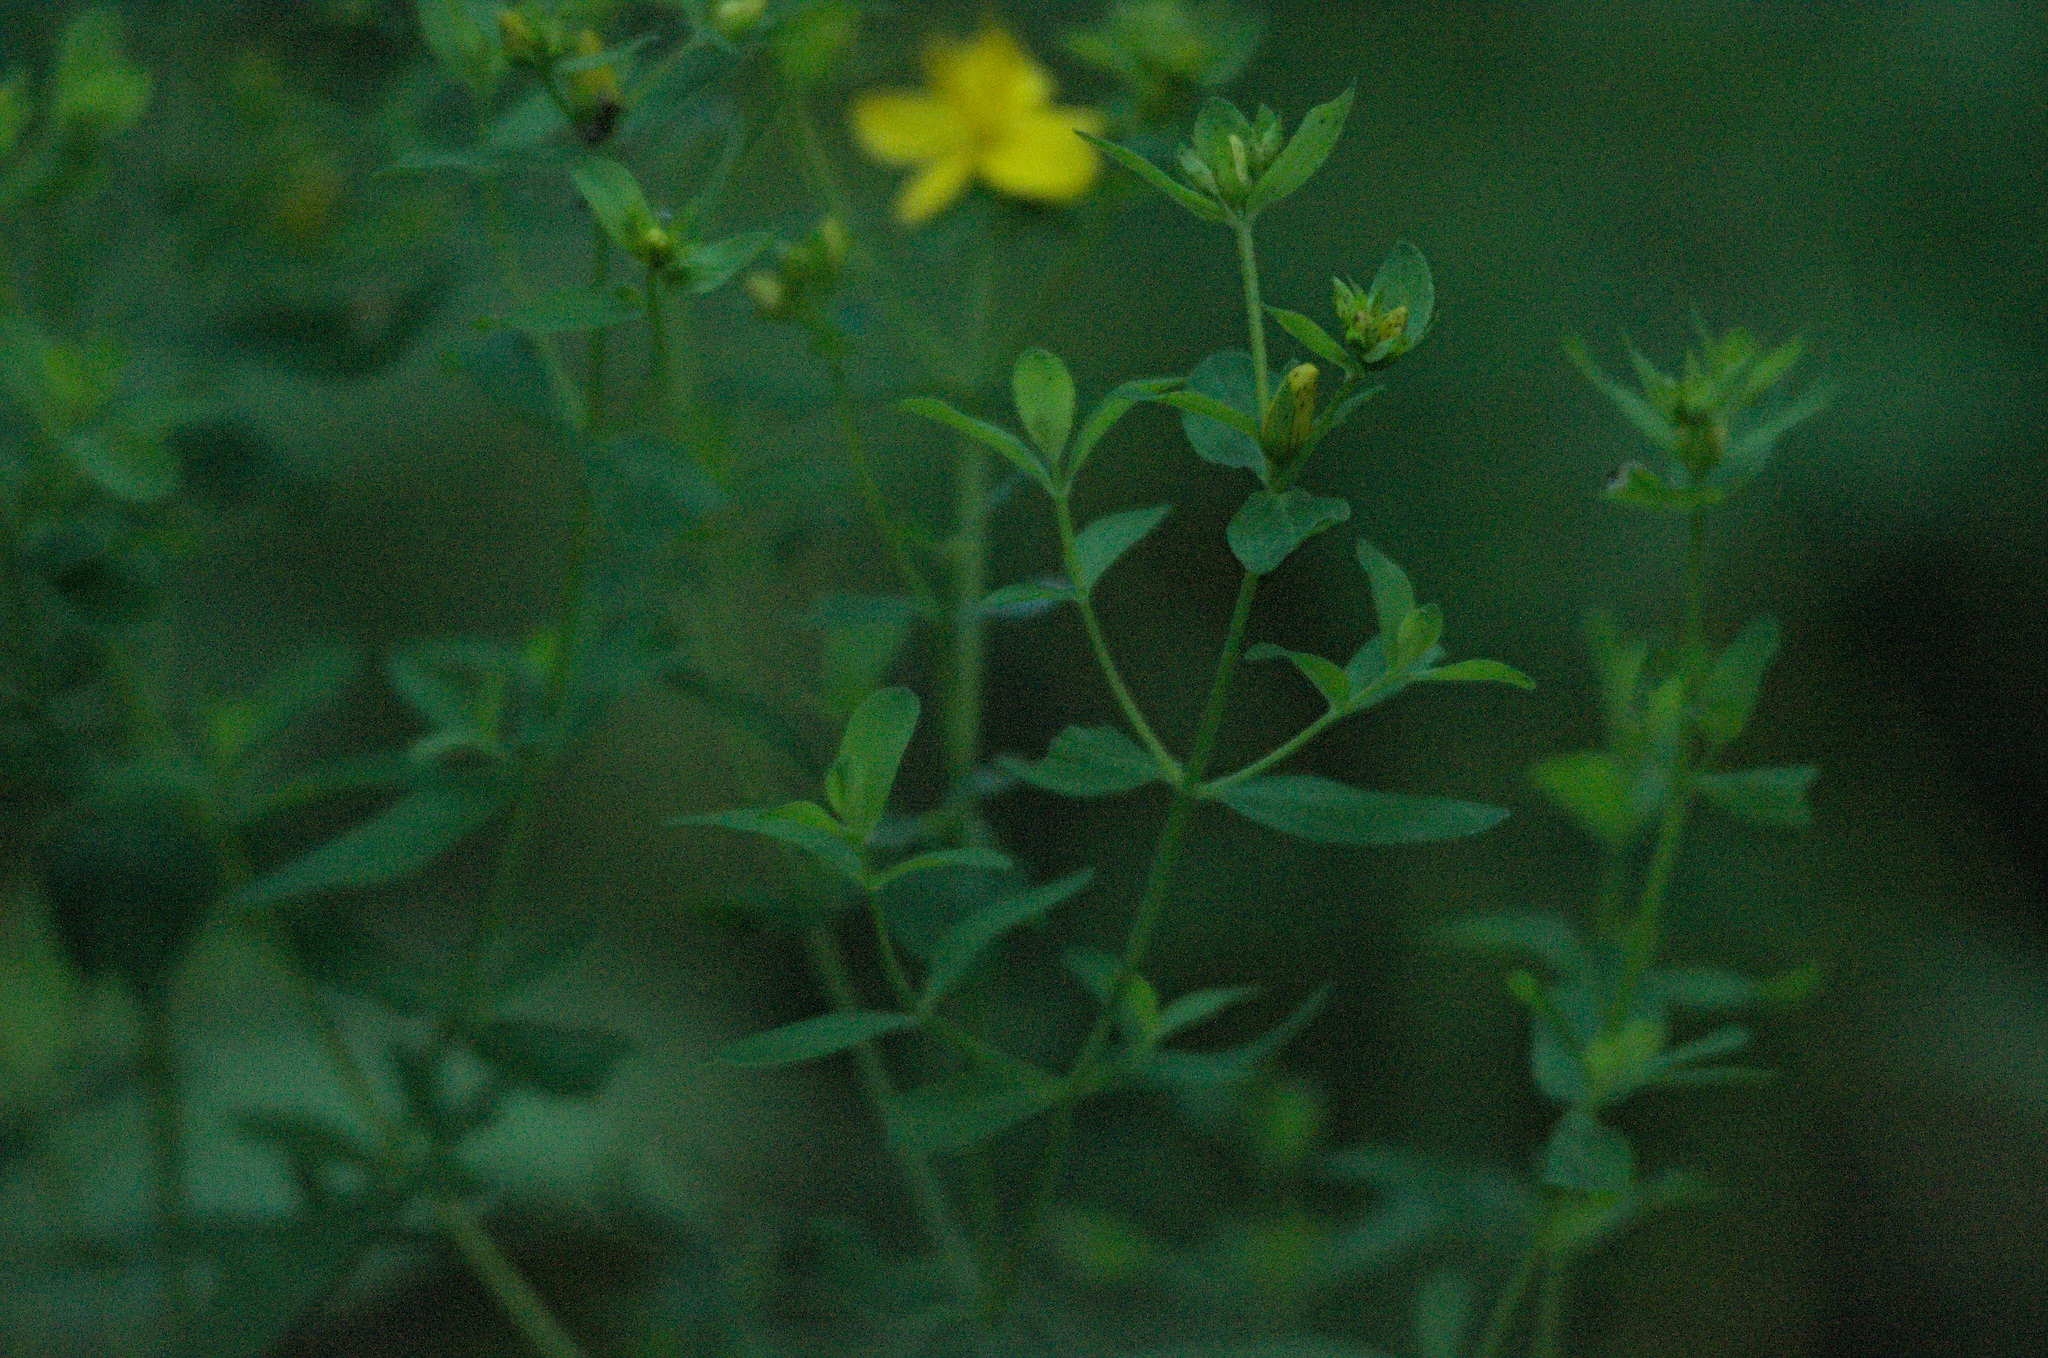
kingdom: Plantae
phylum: Tracheophyta
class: Magnoliopsida
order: Malpighiales
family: Hypericaceae
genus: Hypericum
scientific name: Hypericum perforatum
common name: Common st. johnswort
